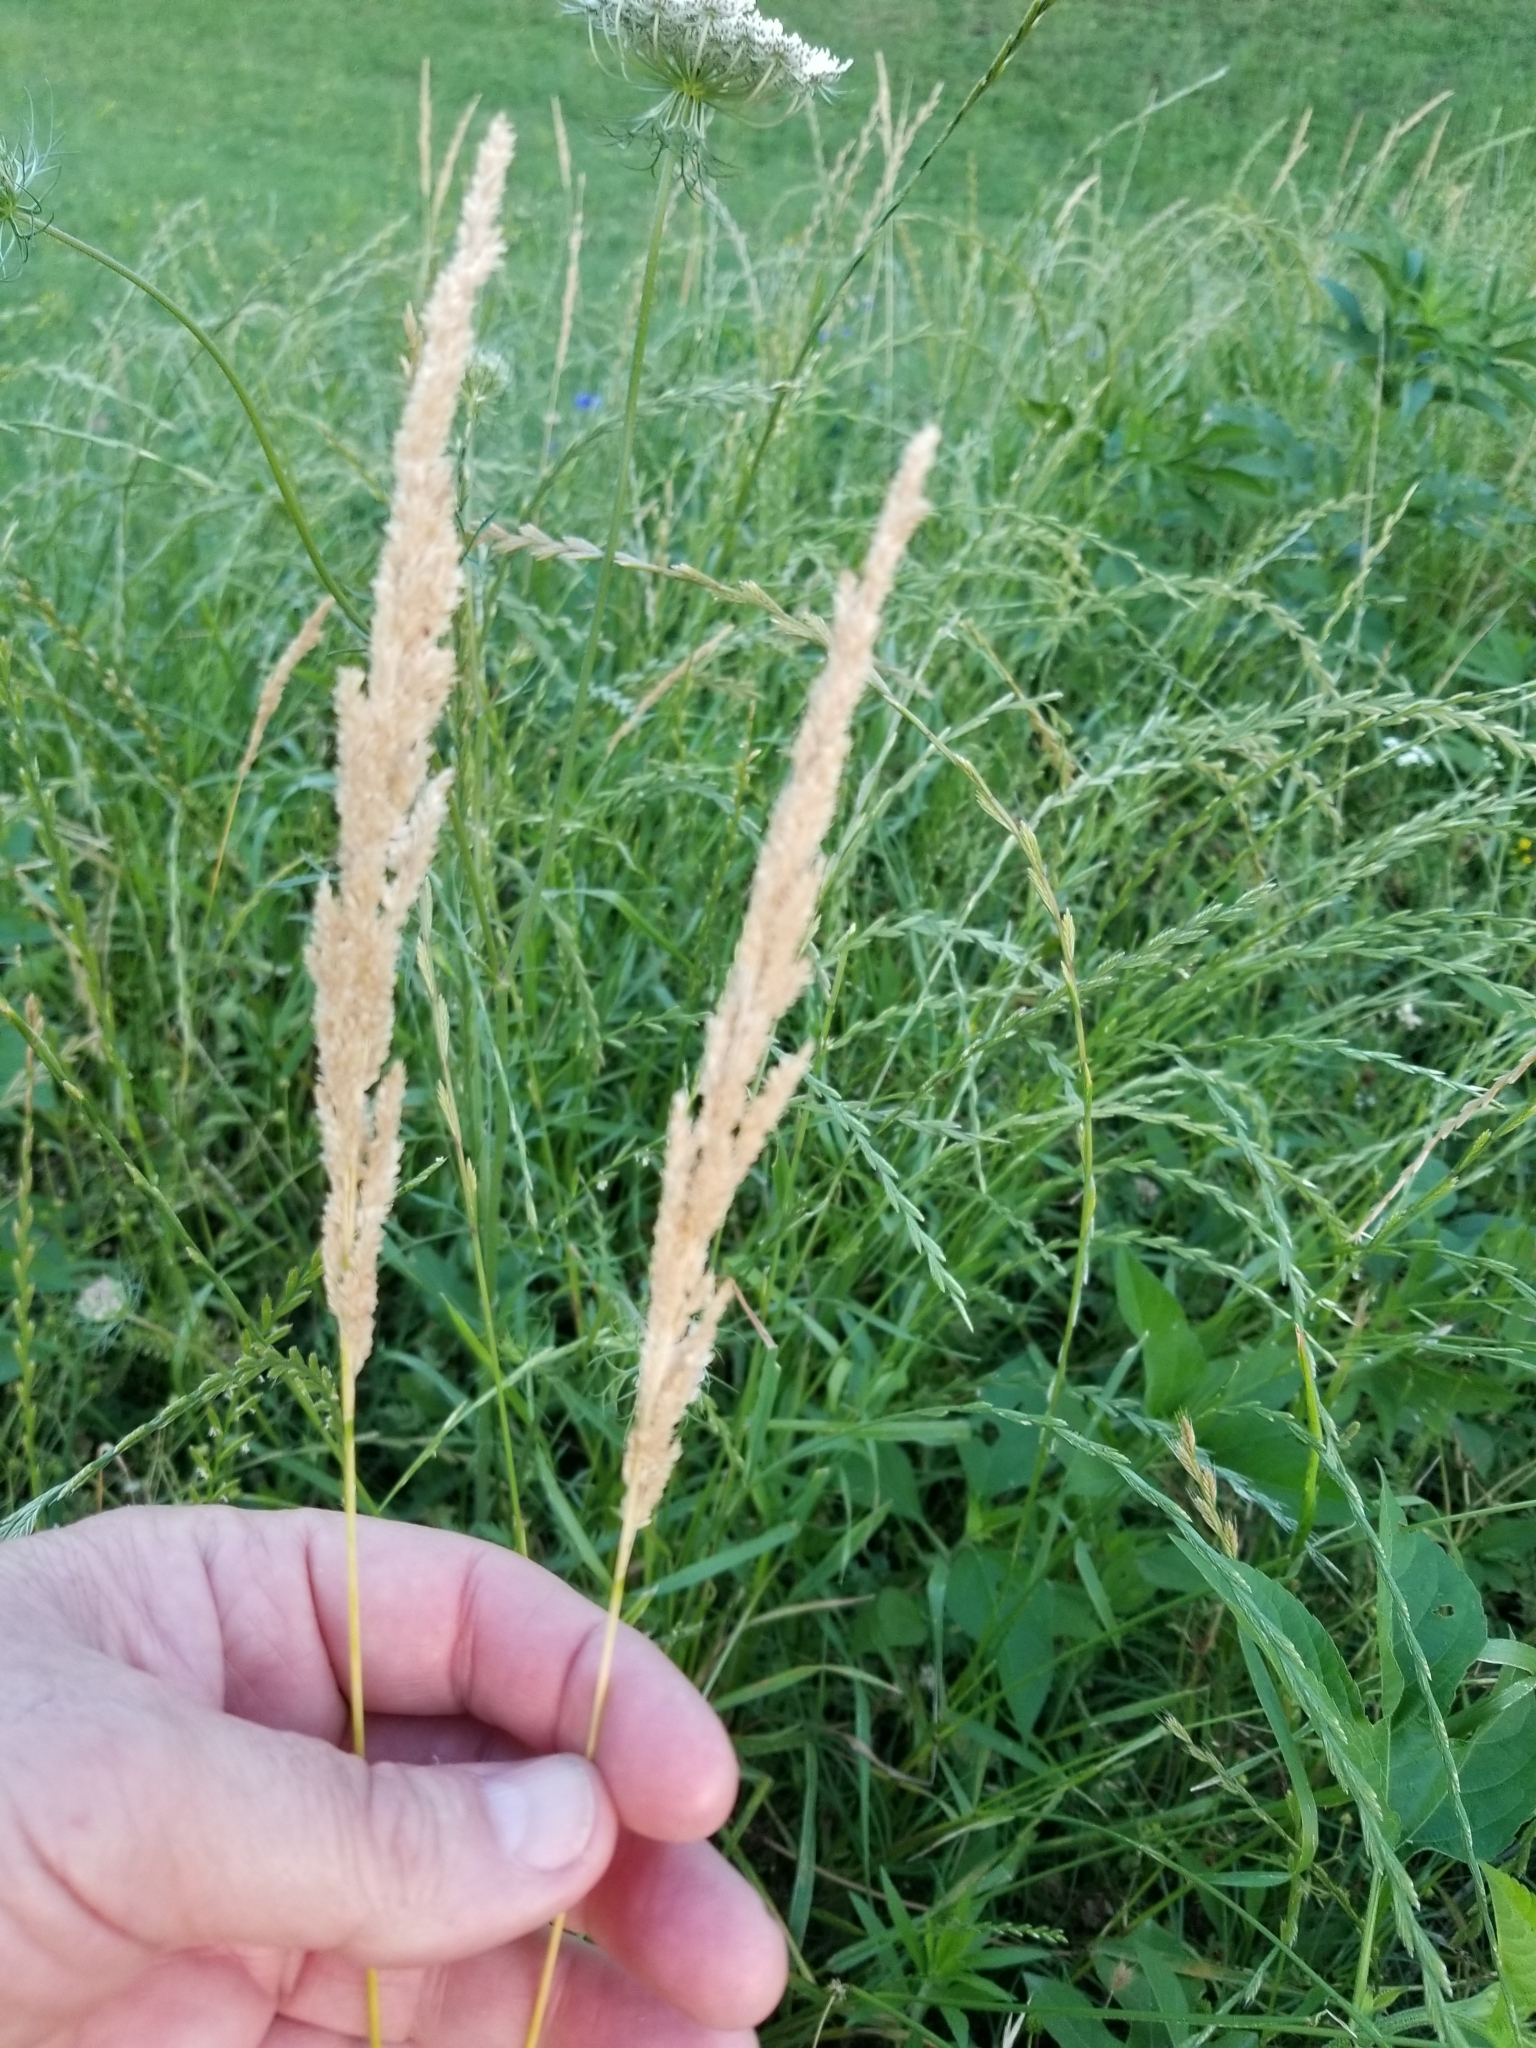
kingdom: Plantae
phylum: Tracheophyta
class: Liliopsida
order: Poales
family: Poaceae
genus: Sphenopholis
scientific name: Sphenopholis obtusata
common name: Prairie grass
